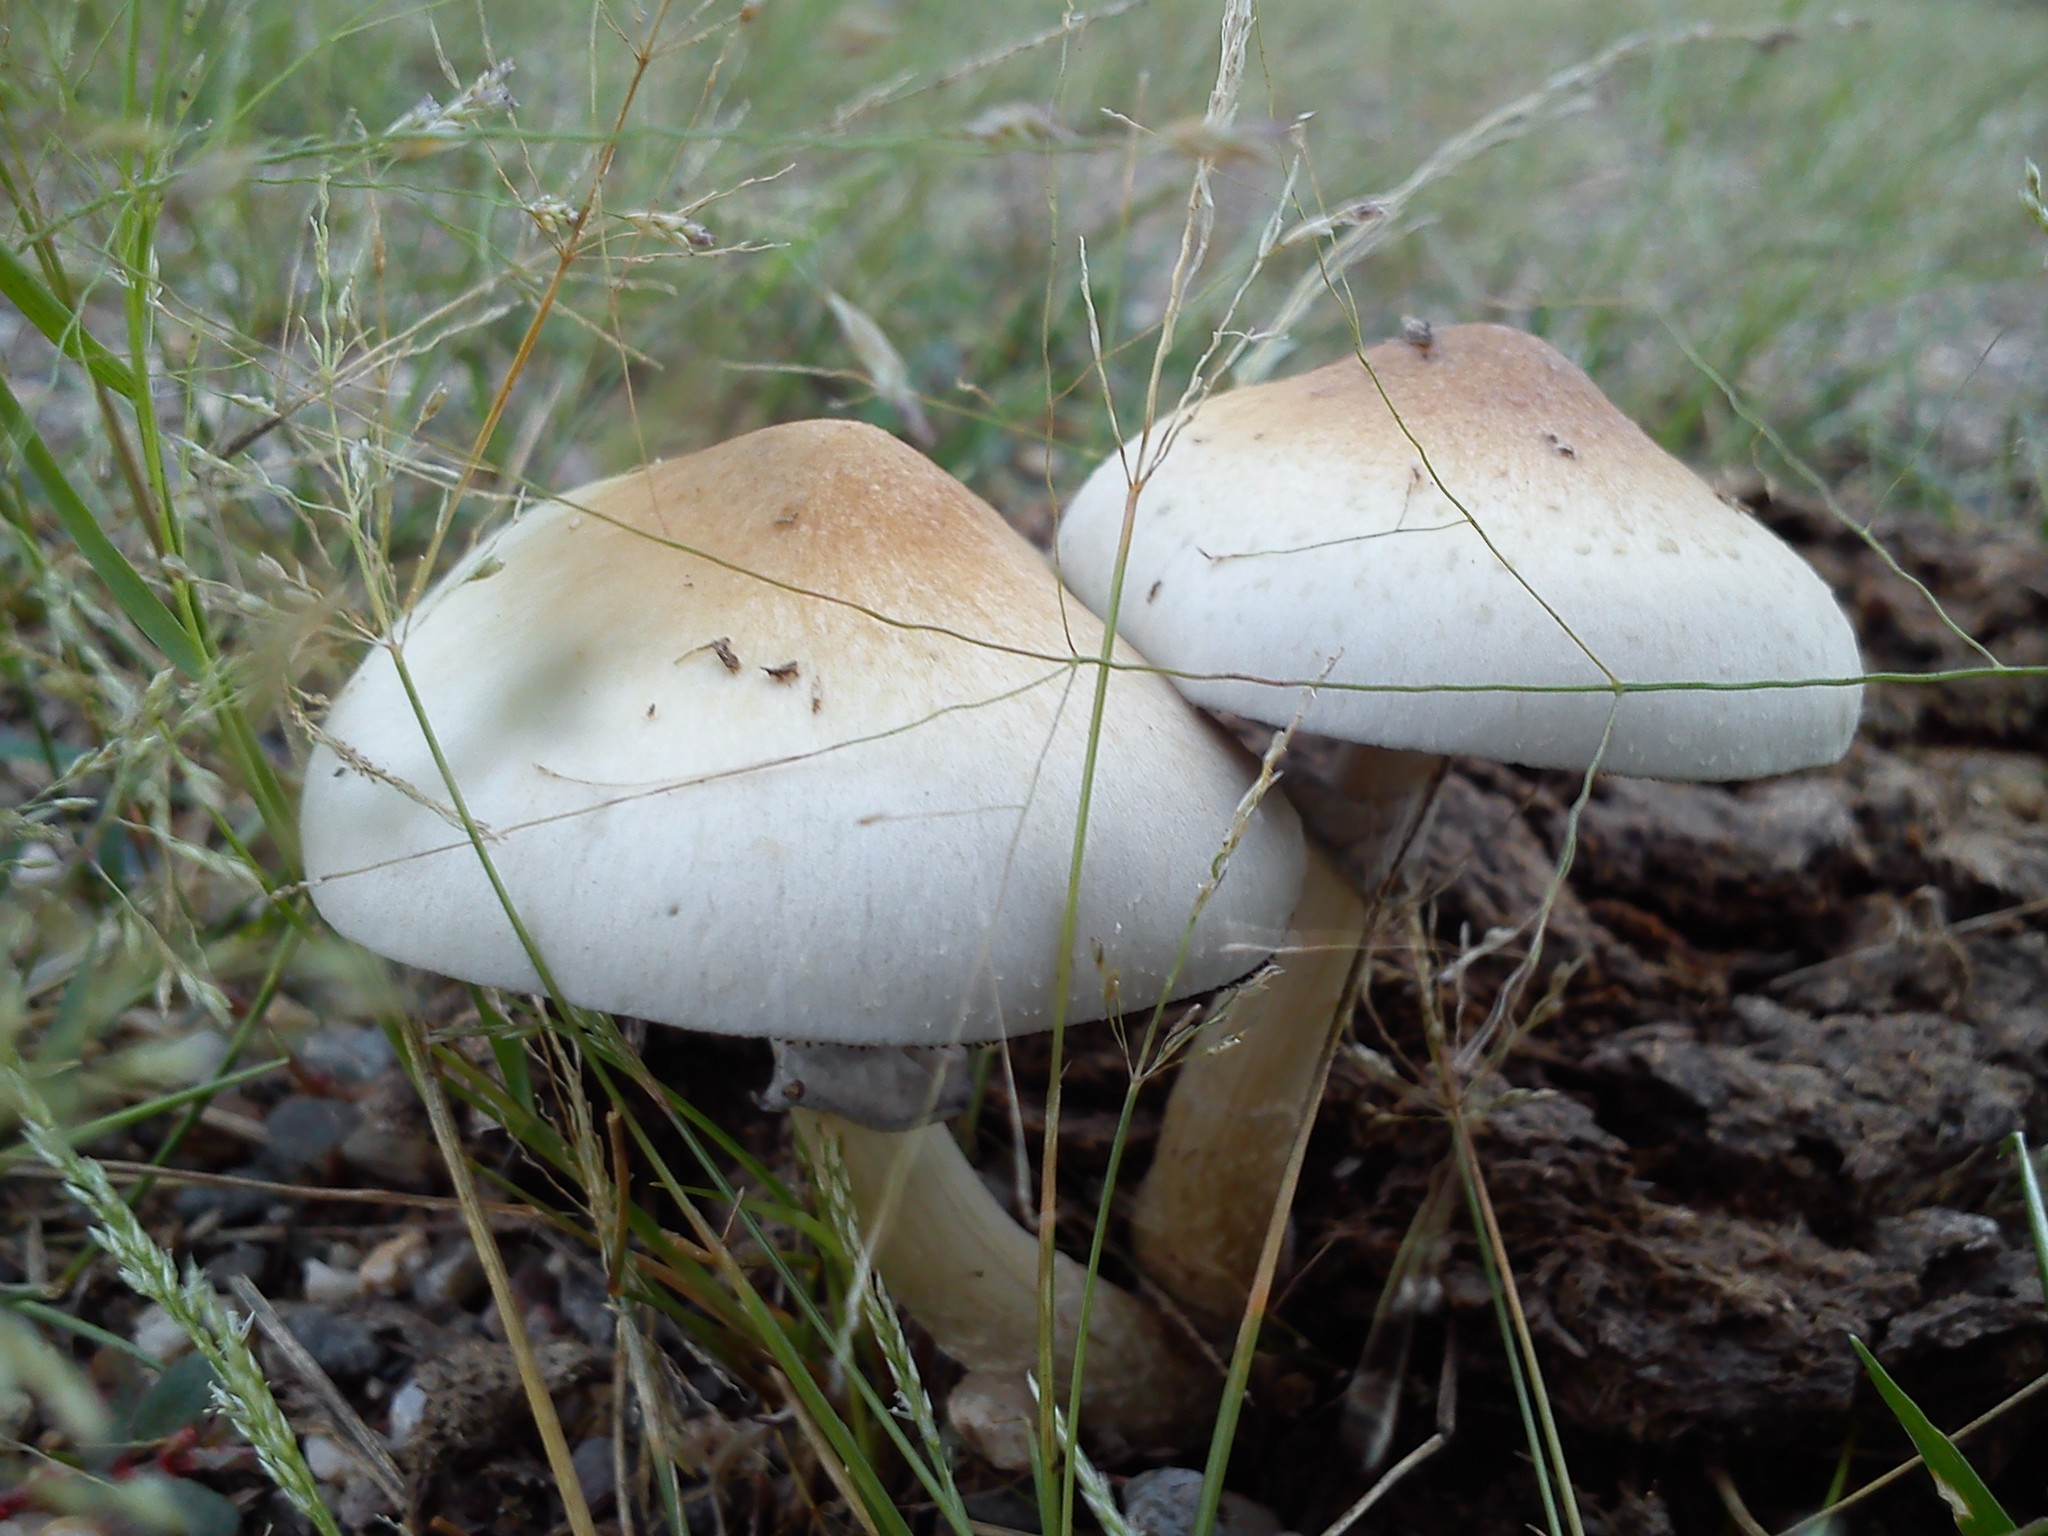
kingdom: Fungi
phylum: Basidiomycota
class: Agaricomycetes
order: Agaricales
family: Hymenogastraceae
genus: Psilocybe
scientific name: Psilocybe cubensis
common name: Golden brownie
